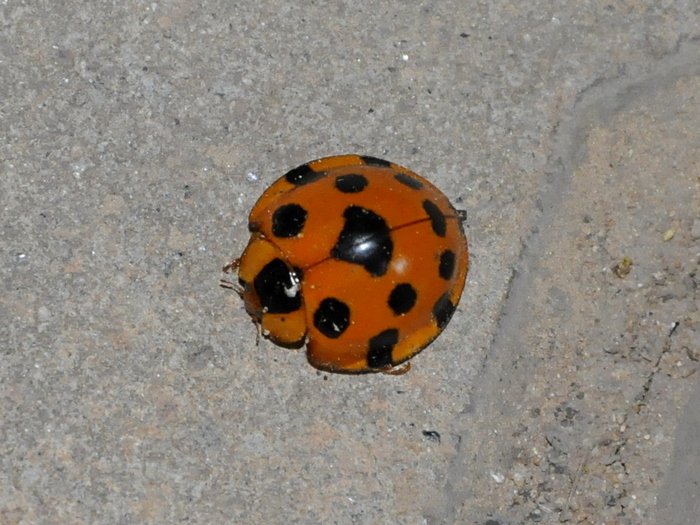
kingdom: Animalia
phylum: Arthropoda
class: Insecta
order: Coleoptera
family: Coccinellidae
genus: Synonycha
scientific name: Synonycha grandis
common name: Lady beetle
